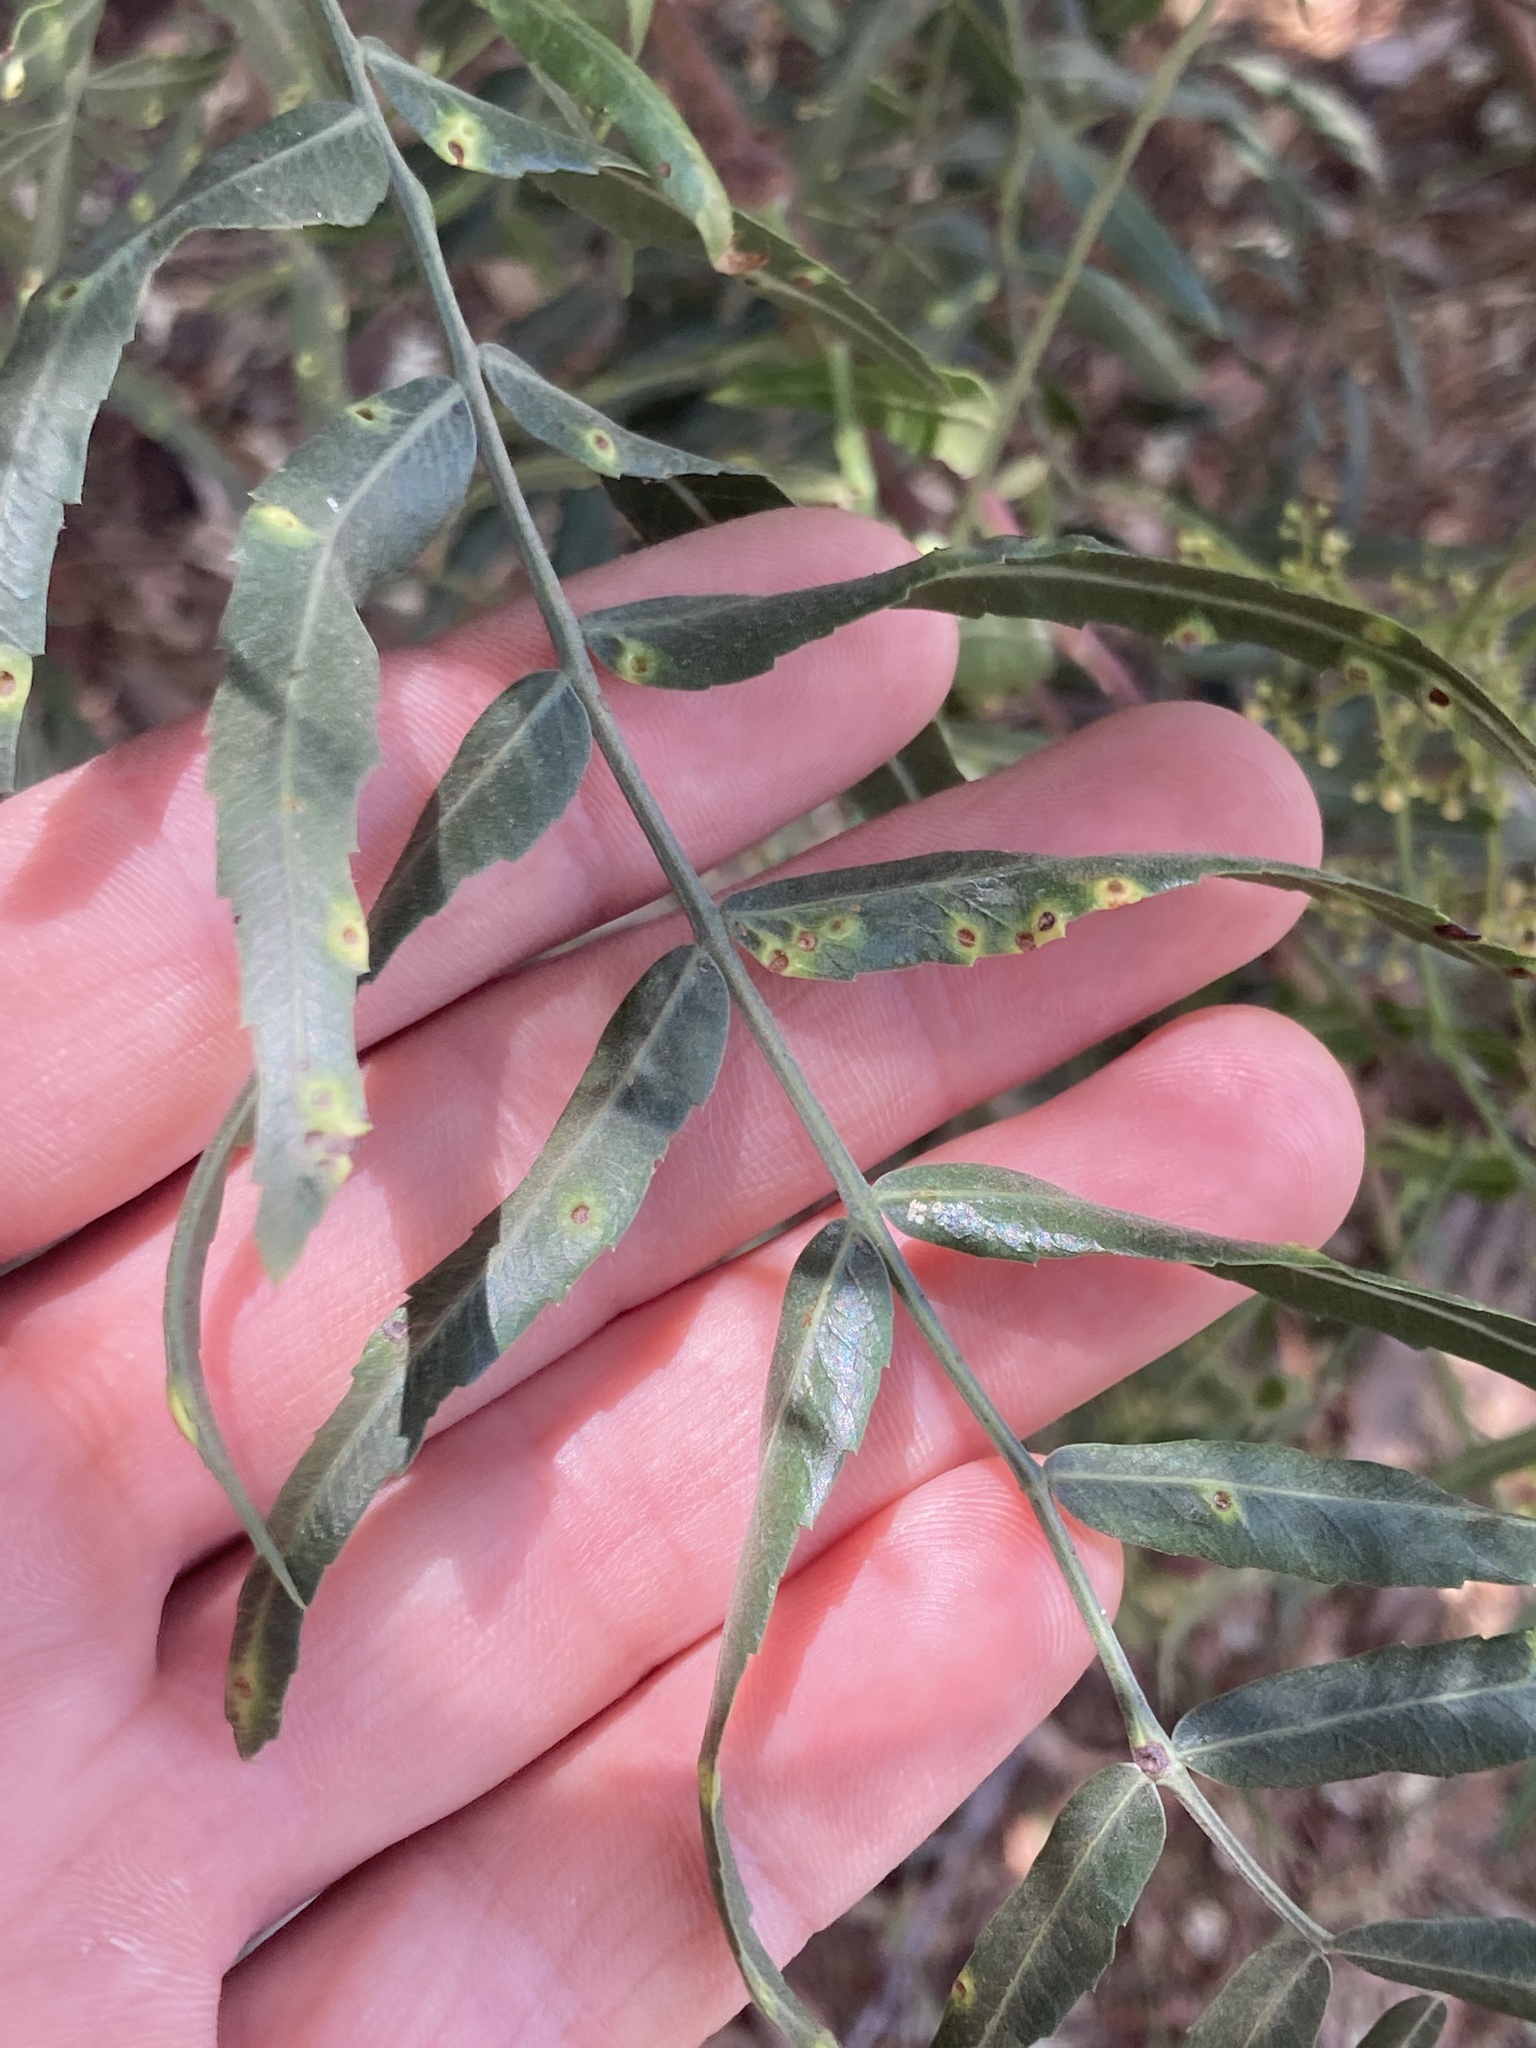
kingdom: Animalia
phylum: Arthropoda
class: Insecta
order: Hemiptera
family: Calophyidae
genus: Calophya
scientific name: Calophya schini
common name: Pepper tree psyllid
